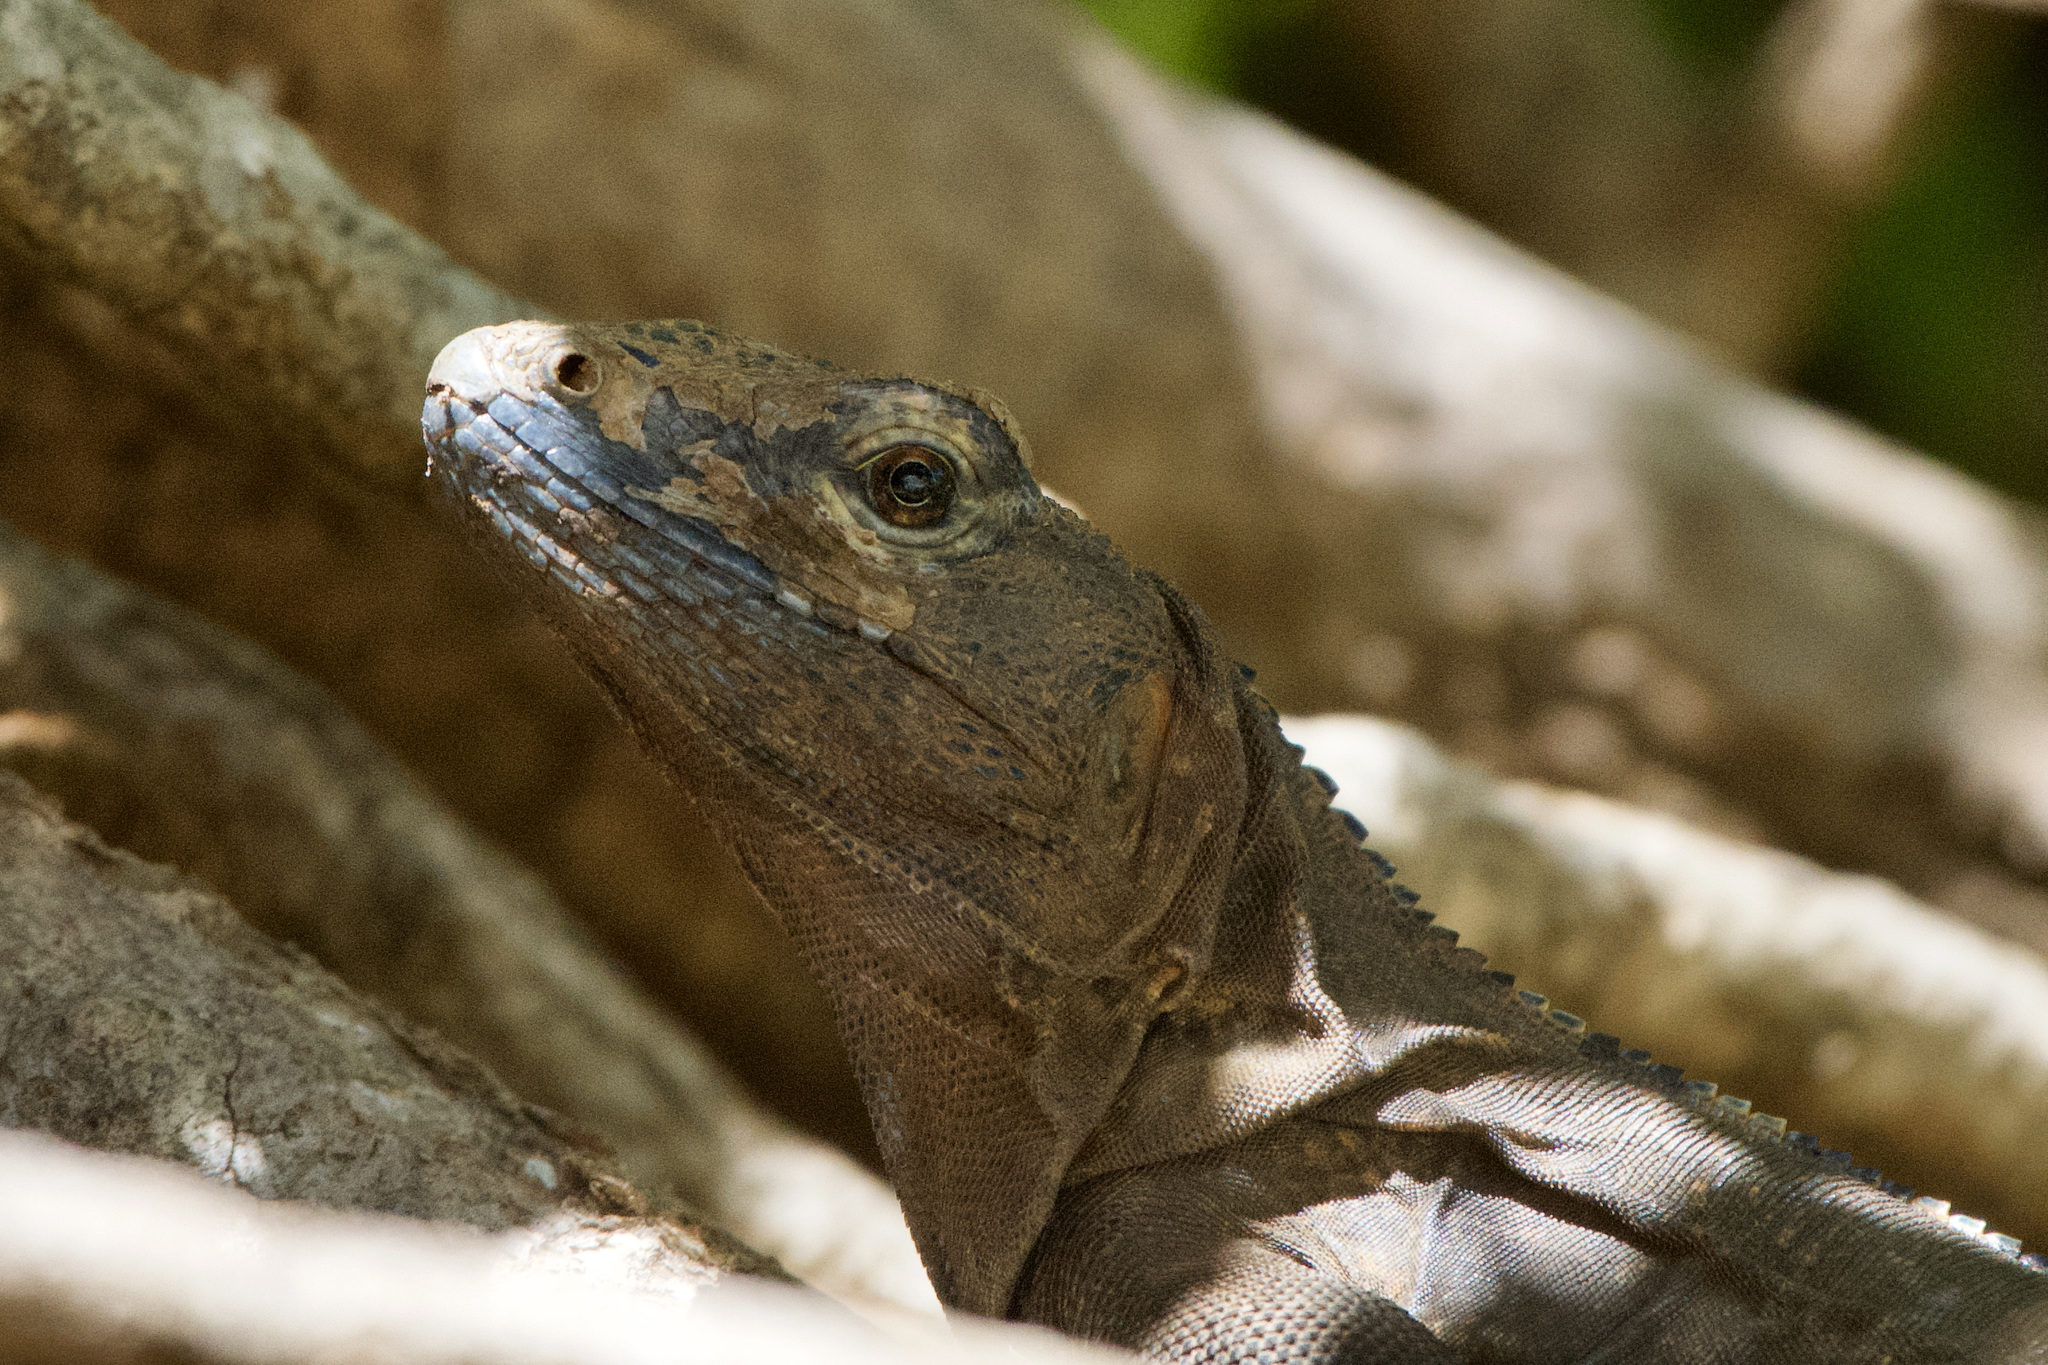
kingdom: Animalia
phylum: Chordata
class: Squamata
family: Iguanidae
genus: Ctenosaura
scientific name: Ctenosaura similis
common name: Black spiny-tailed iguana
